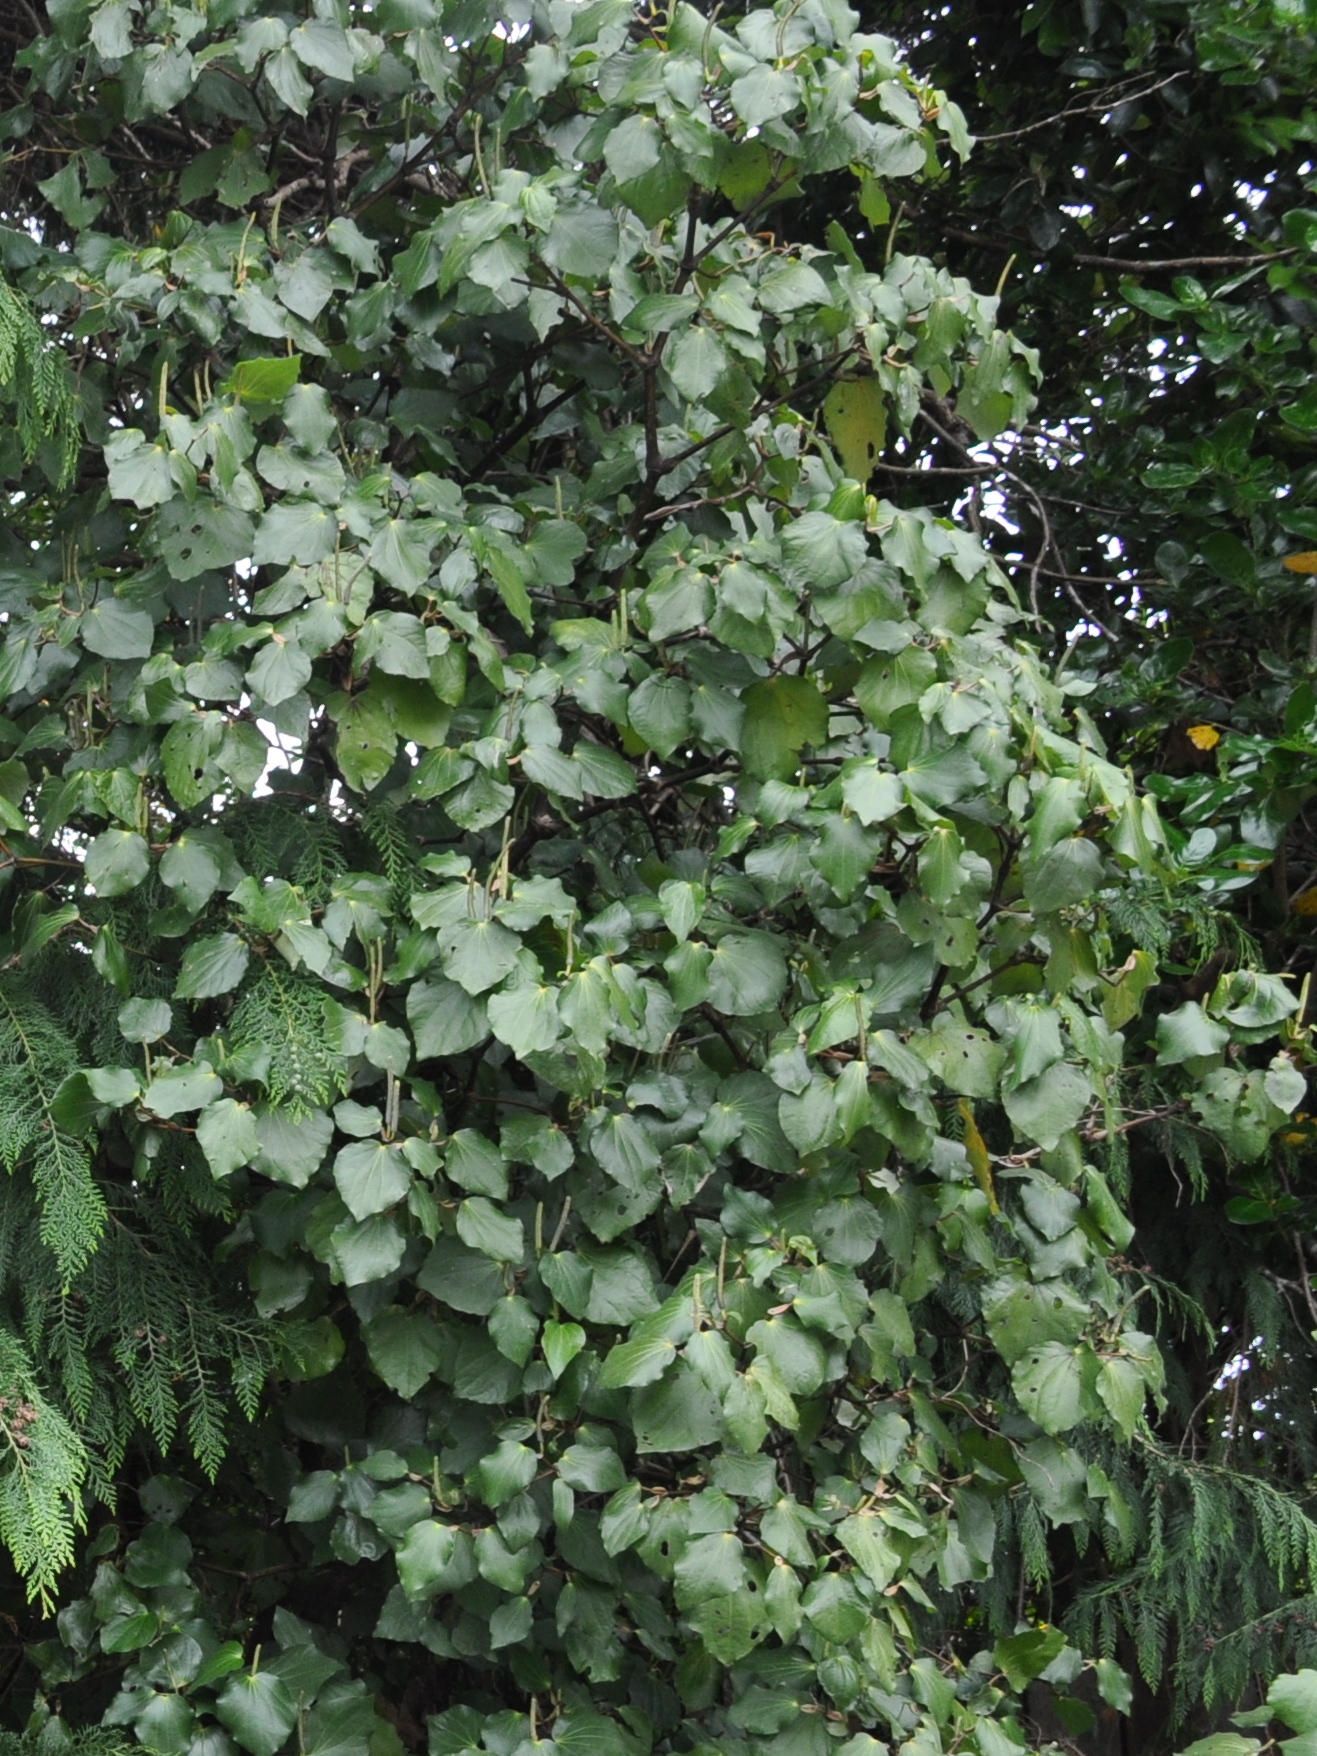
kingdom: Plantae
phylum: Tracheophyta
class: Magnoliopsida
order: Piperales
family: Piperaceae
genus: Macropiper
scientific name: Macropiper excelsum
